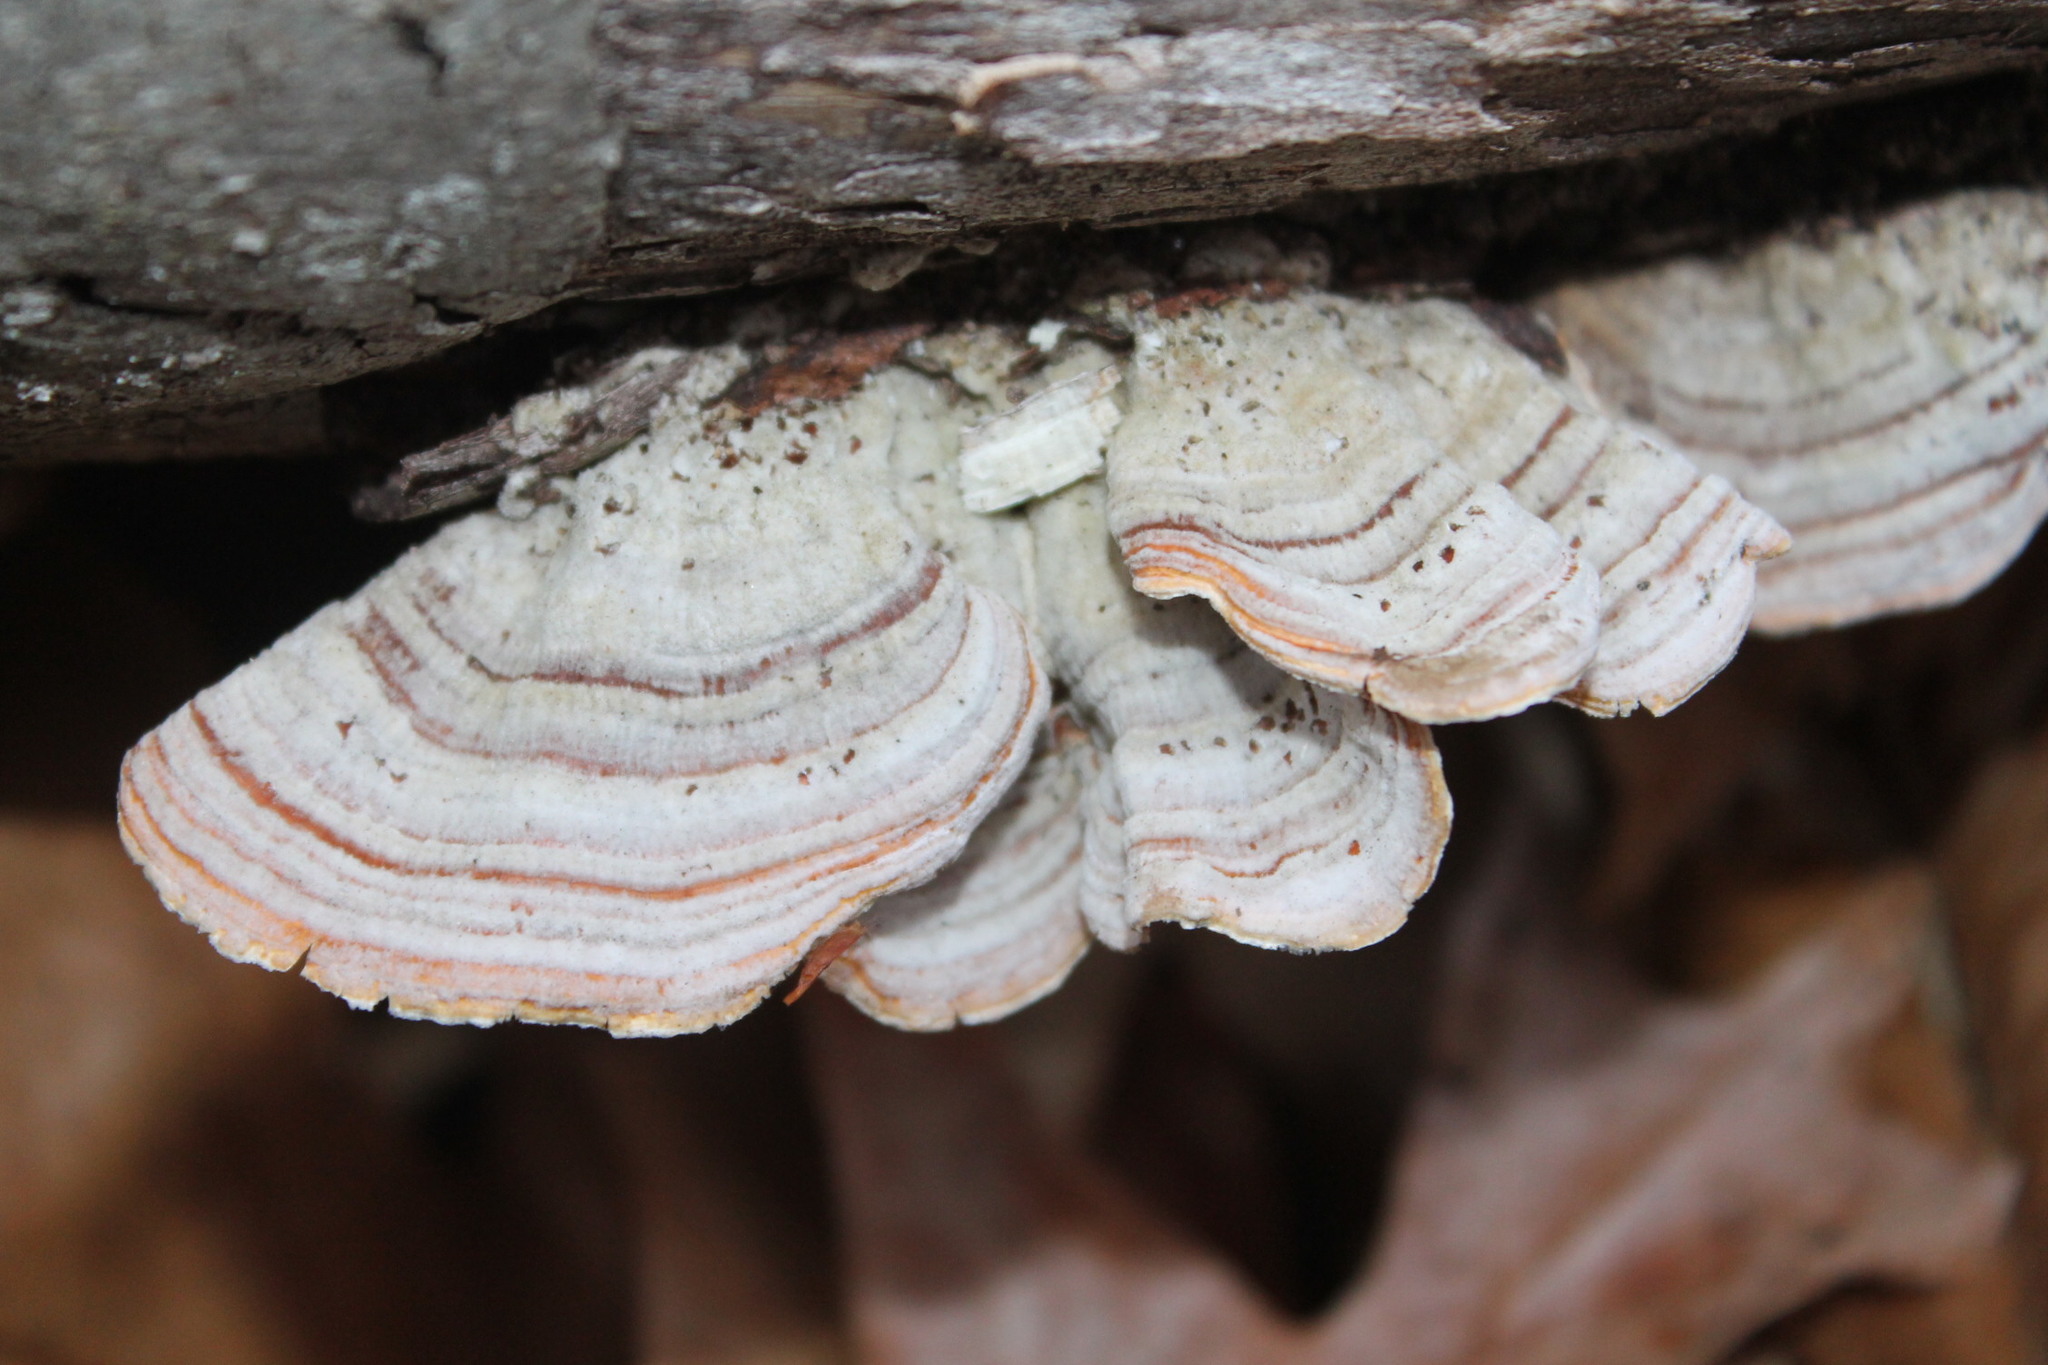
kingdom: Fungi
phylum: Basidiomycota
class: Agaricomycetes
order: Russulales
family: Stereaceae
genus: Stereum
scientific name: Stereum lobatum
